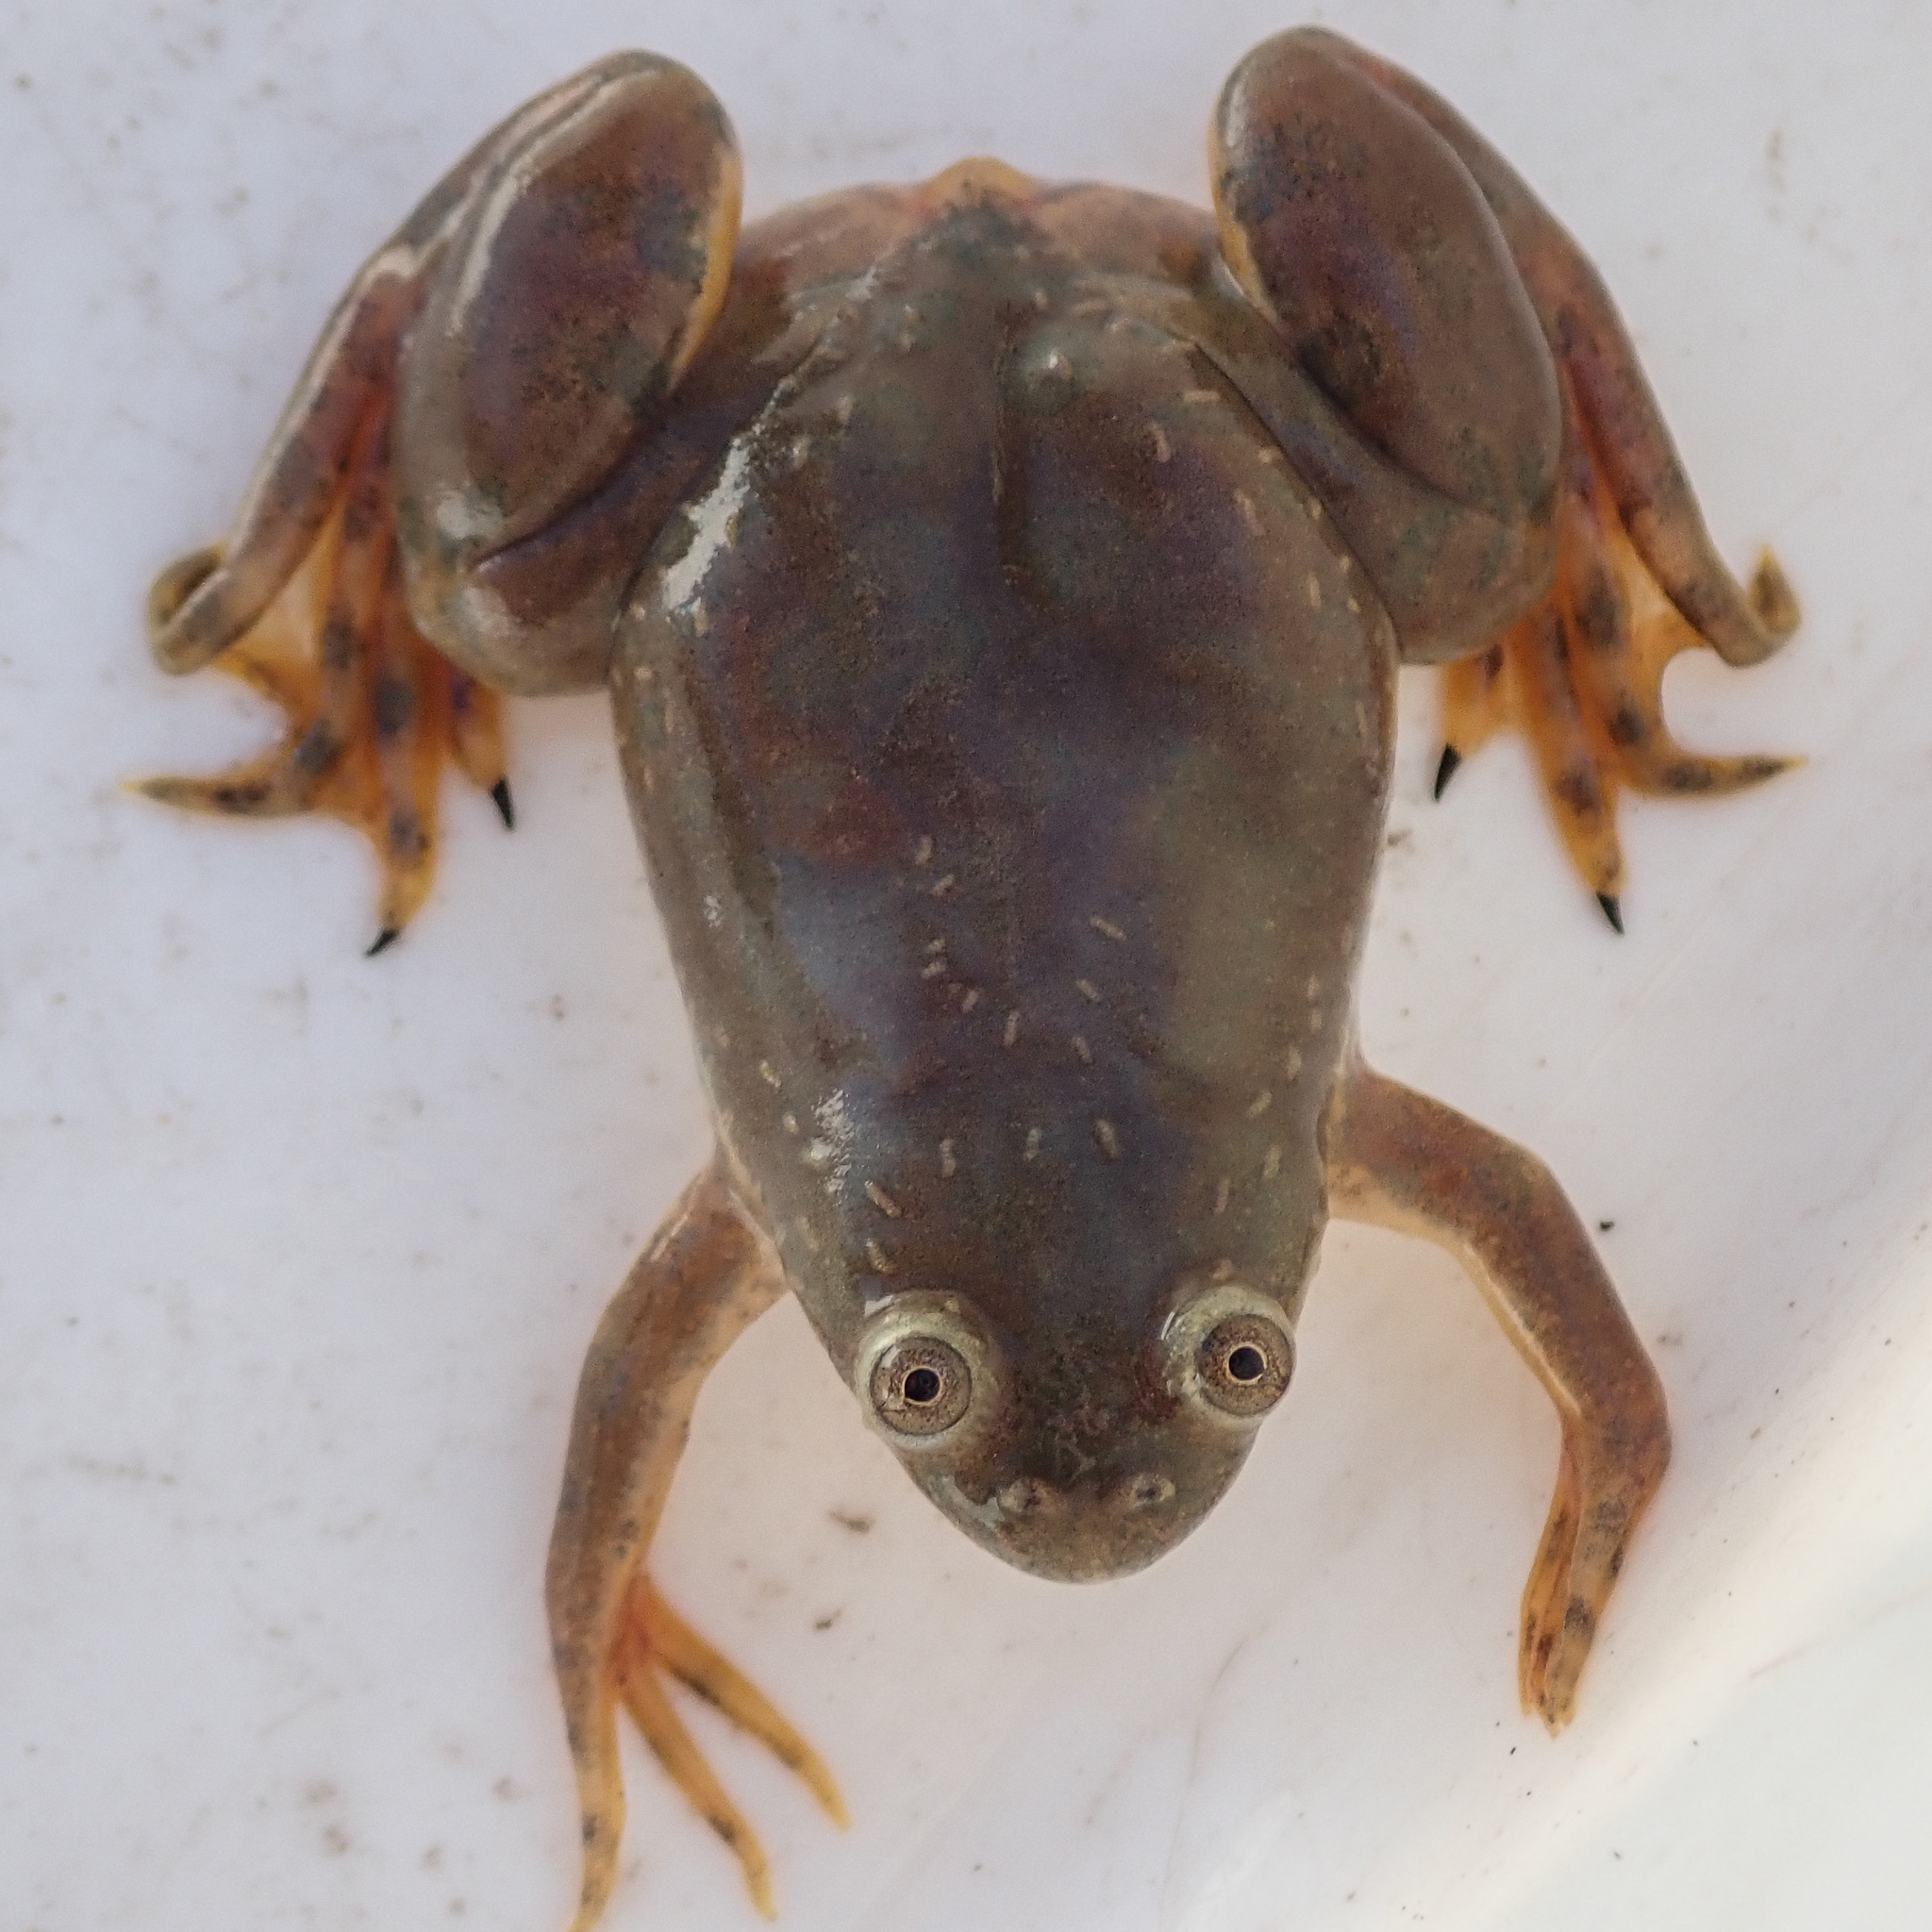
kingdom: Animalia
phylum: Chordata
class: Amphibia
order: Anura
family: Pipidae
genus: Xenopus
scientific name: Xenopus muelleri
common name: Muller's clawed frog
